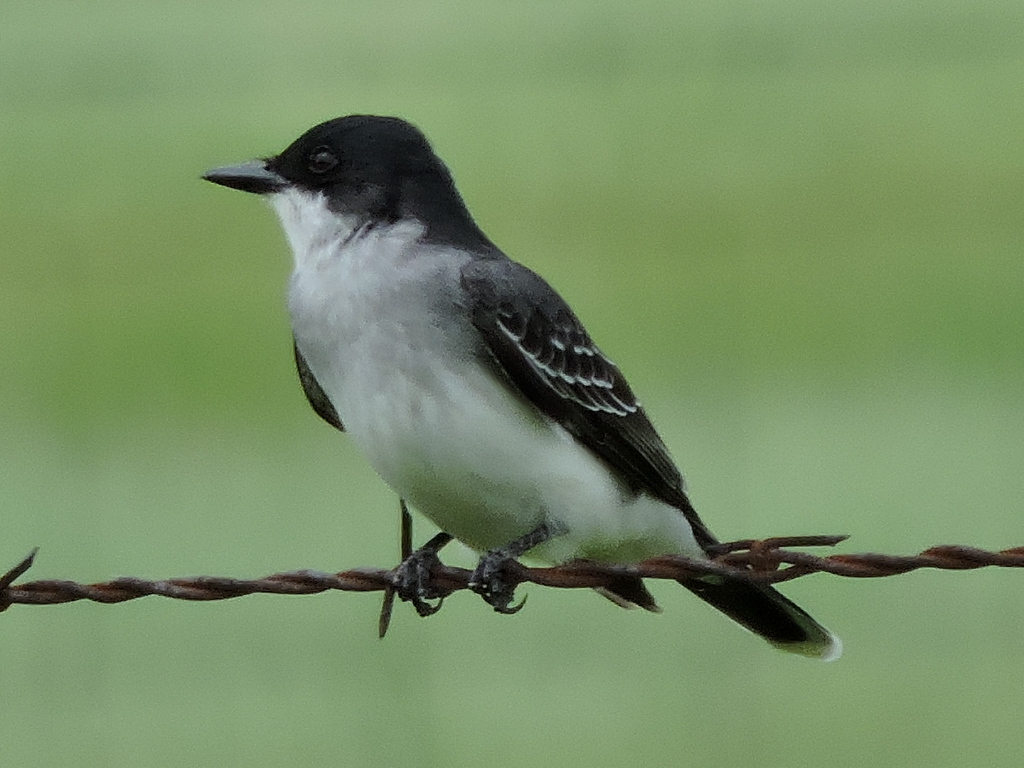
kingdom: Animalia
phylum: Chordata
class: Aves
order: Passeriformes
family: Tyrannidae
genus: Tyrannus
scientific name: Tyrannus tyrannus
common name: Eastern kingbird
